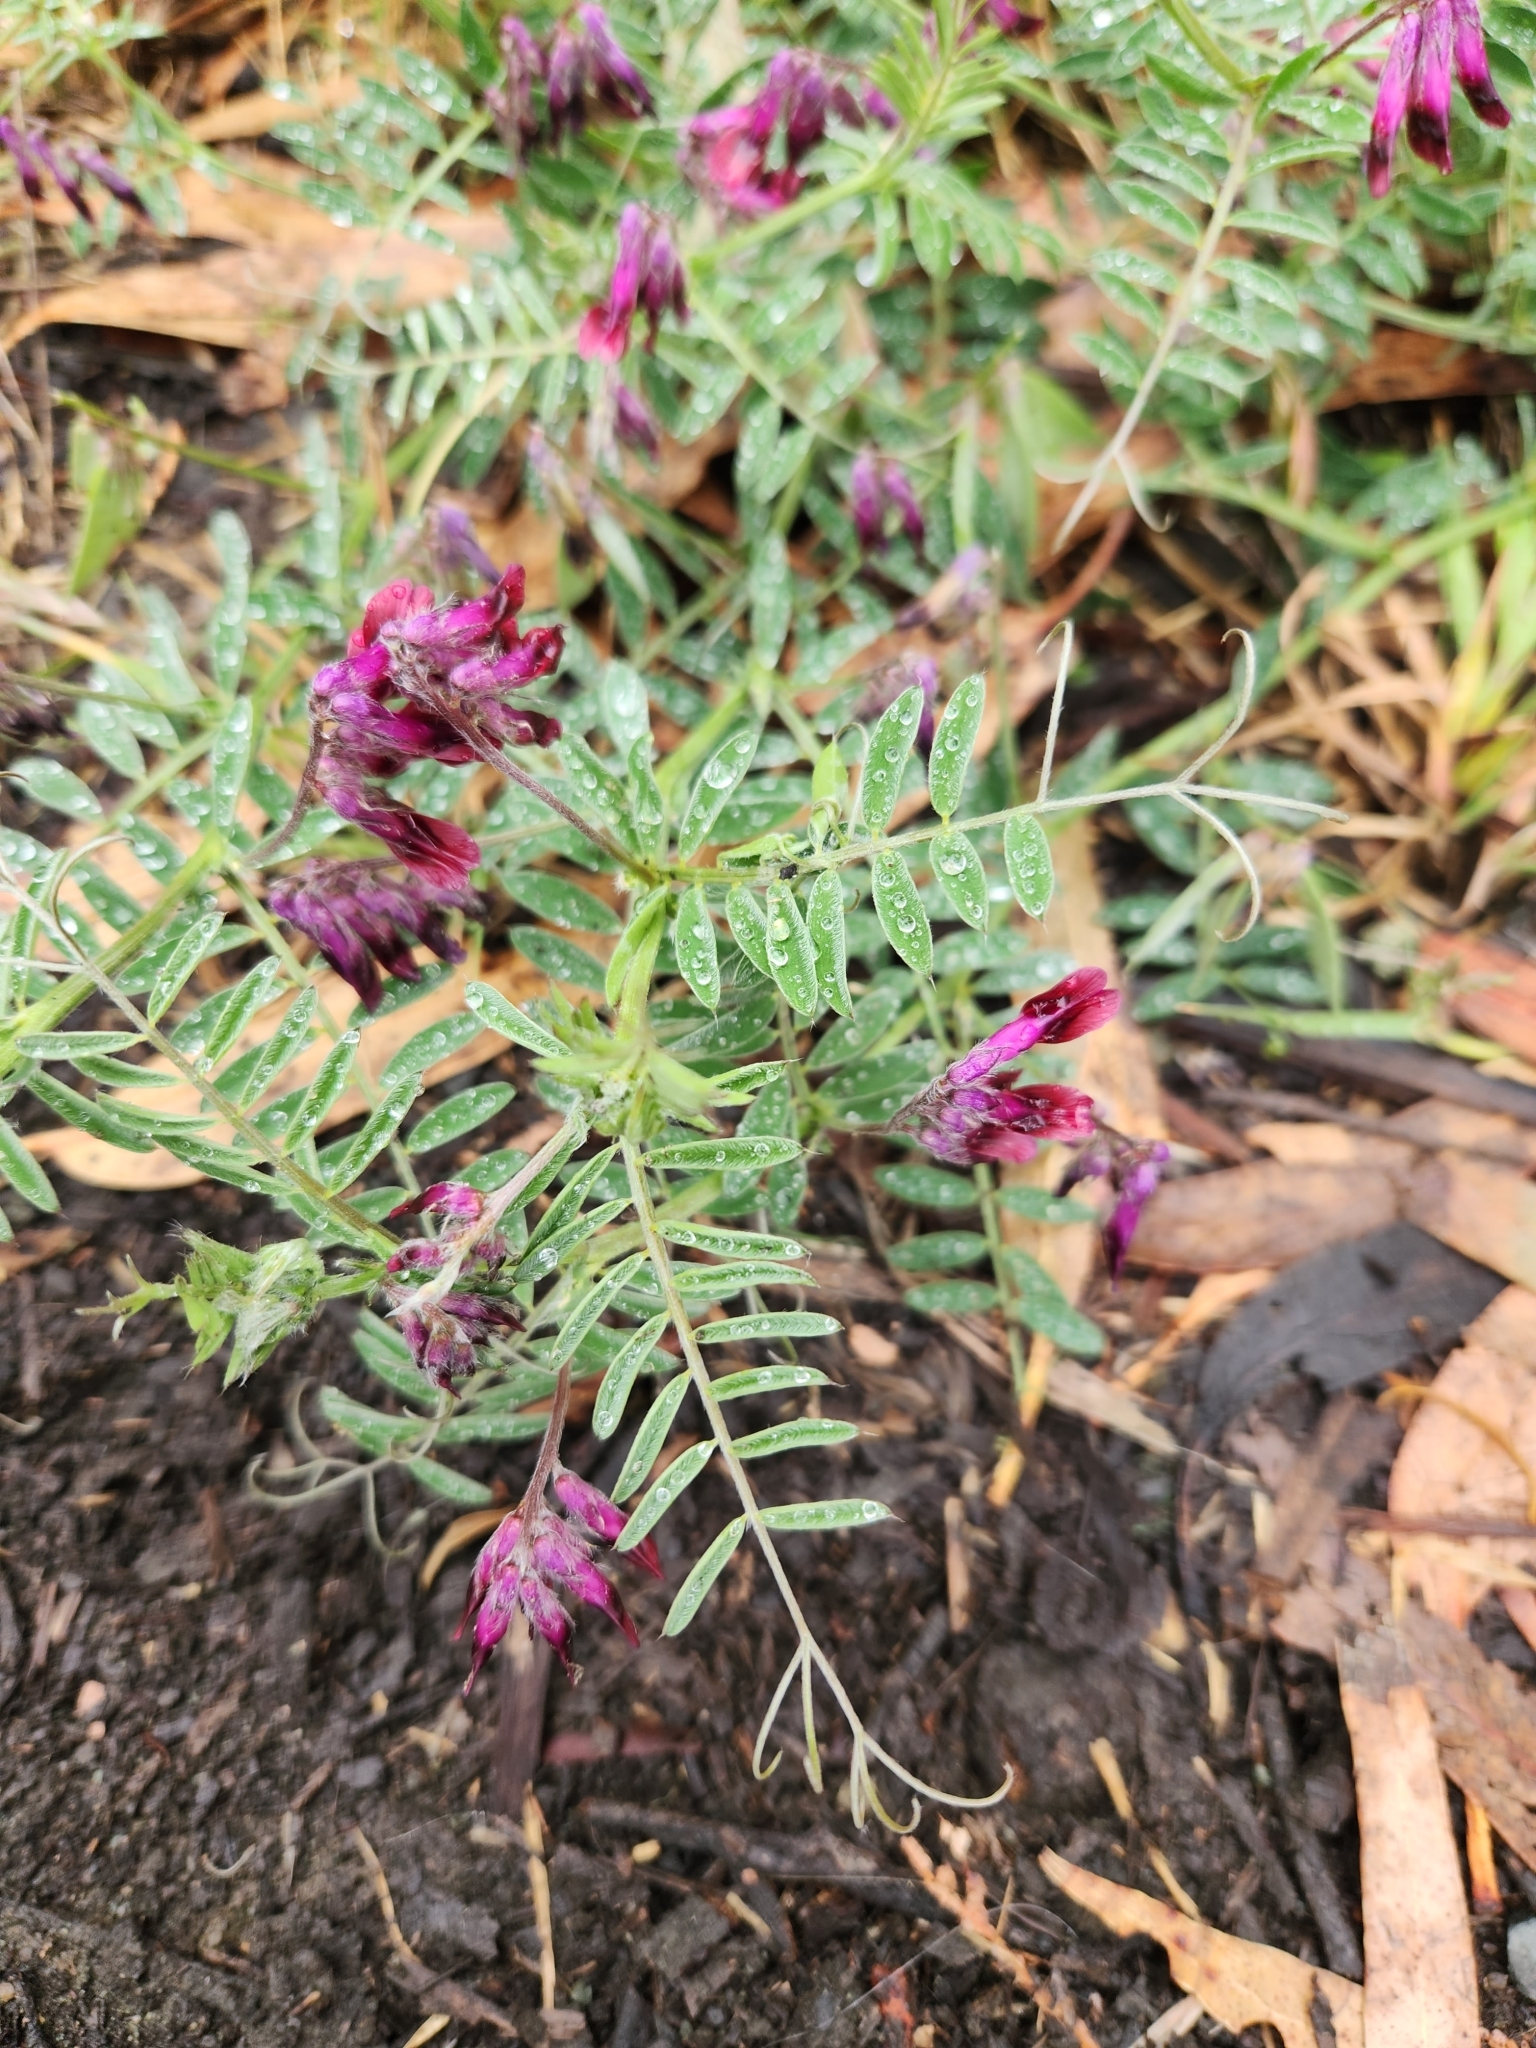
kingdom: Plantae
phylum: Tracheophyta
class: Magnoliopsida
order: Fabales
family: Fabaceae
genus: Vicia
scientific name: Vicia benghalensis
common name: Purple vetch
